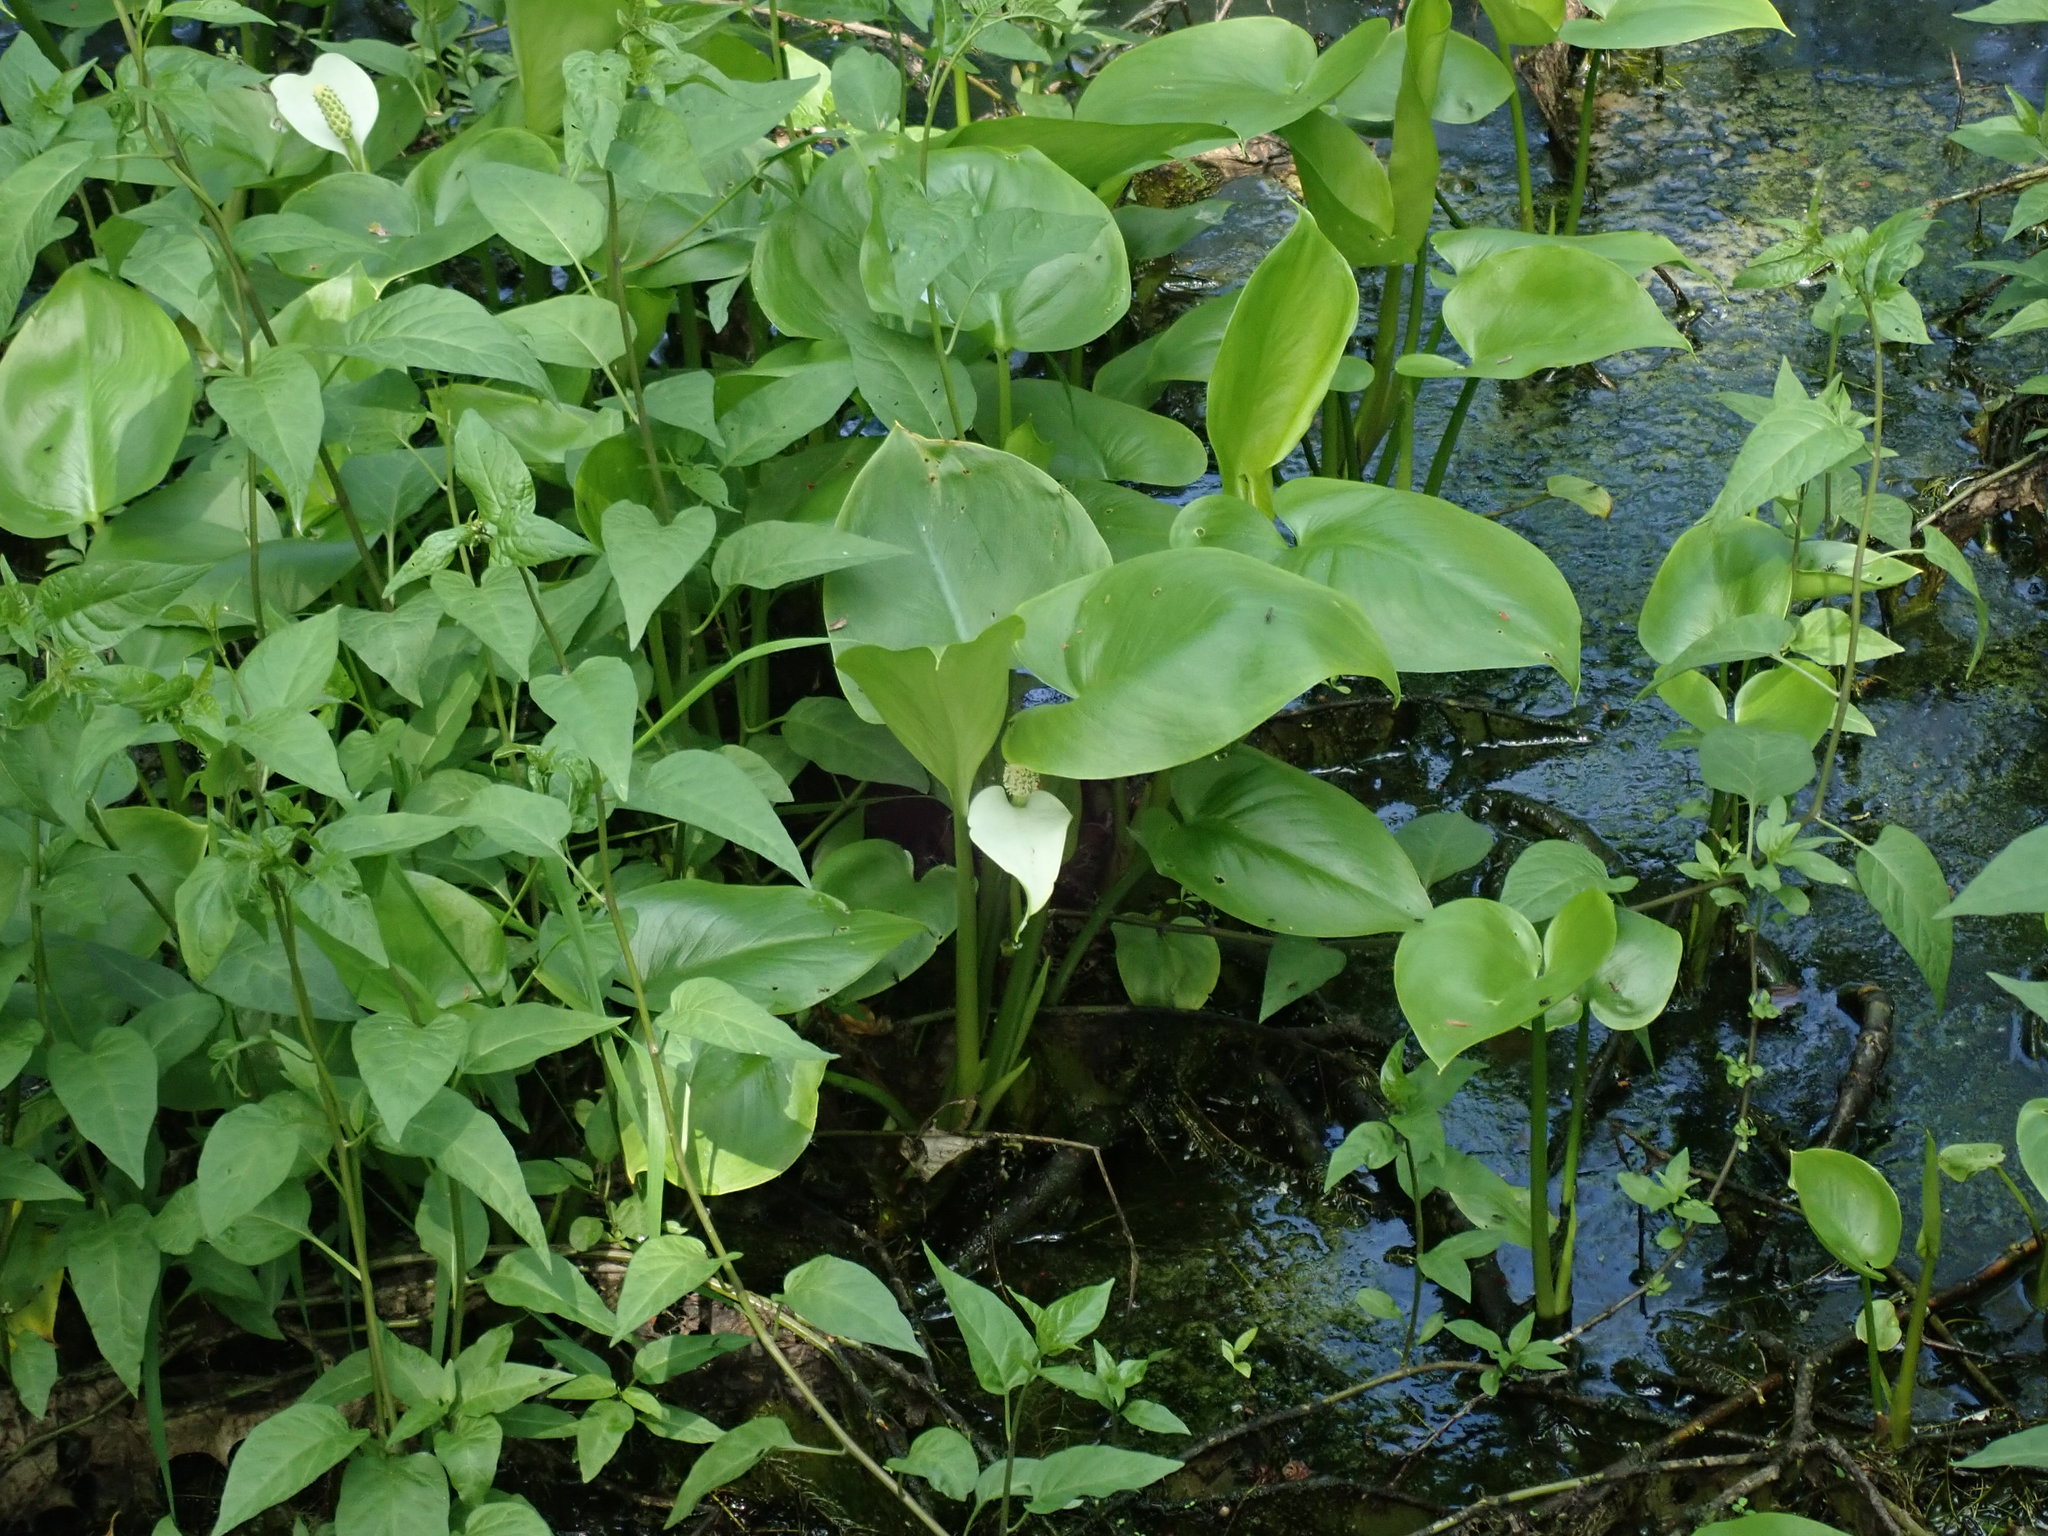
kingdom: Plantae
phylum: Tracheophyta
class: Liliopsida
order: Alismatales
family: Araceae
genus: Calla
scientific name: Calla palustris
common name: Bog arum
